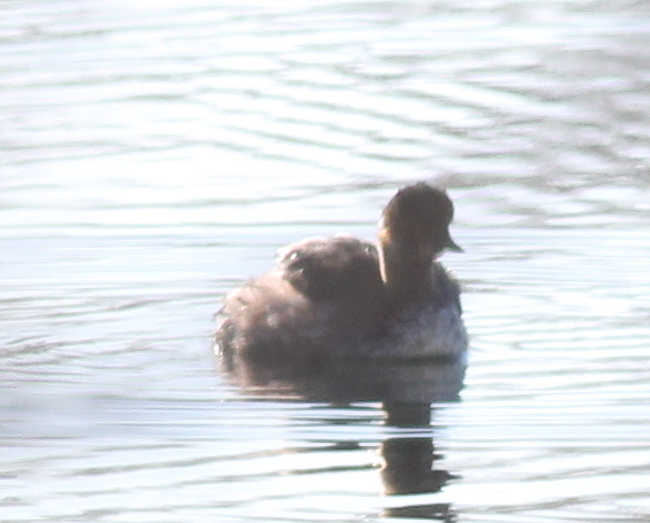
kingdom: Animalia
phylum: Chordata
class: Aves
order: Podicipediformes
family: Podicipedidae
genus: Tachybaptus
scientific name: Tachybaptus ruficollis
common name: Little grebe
